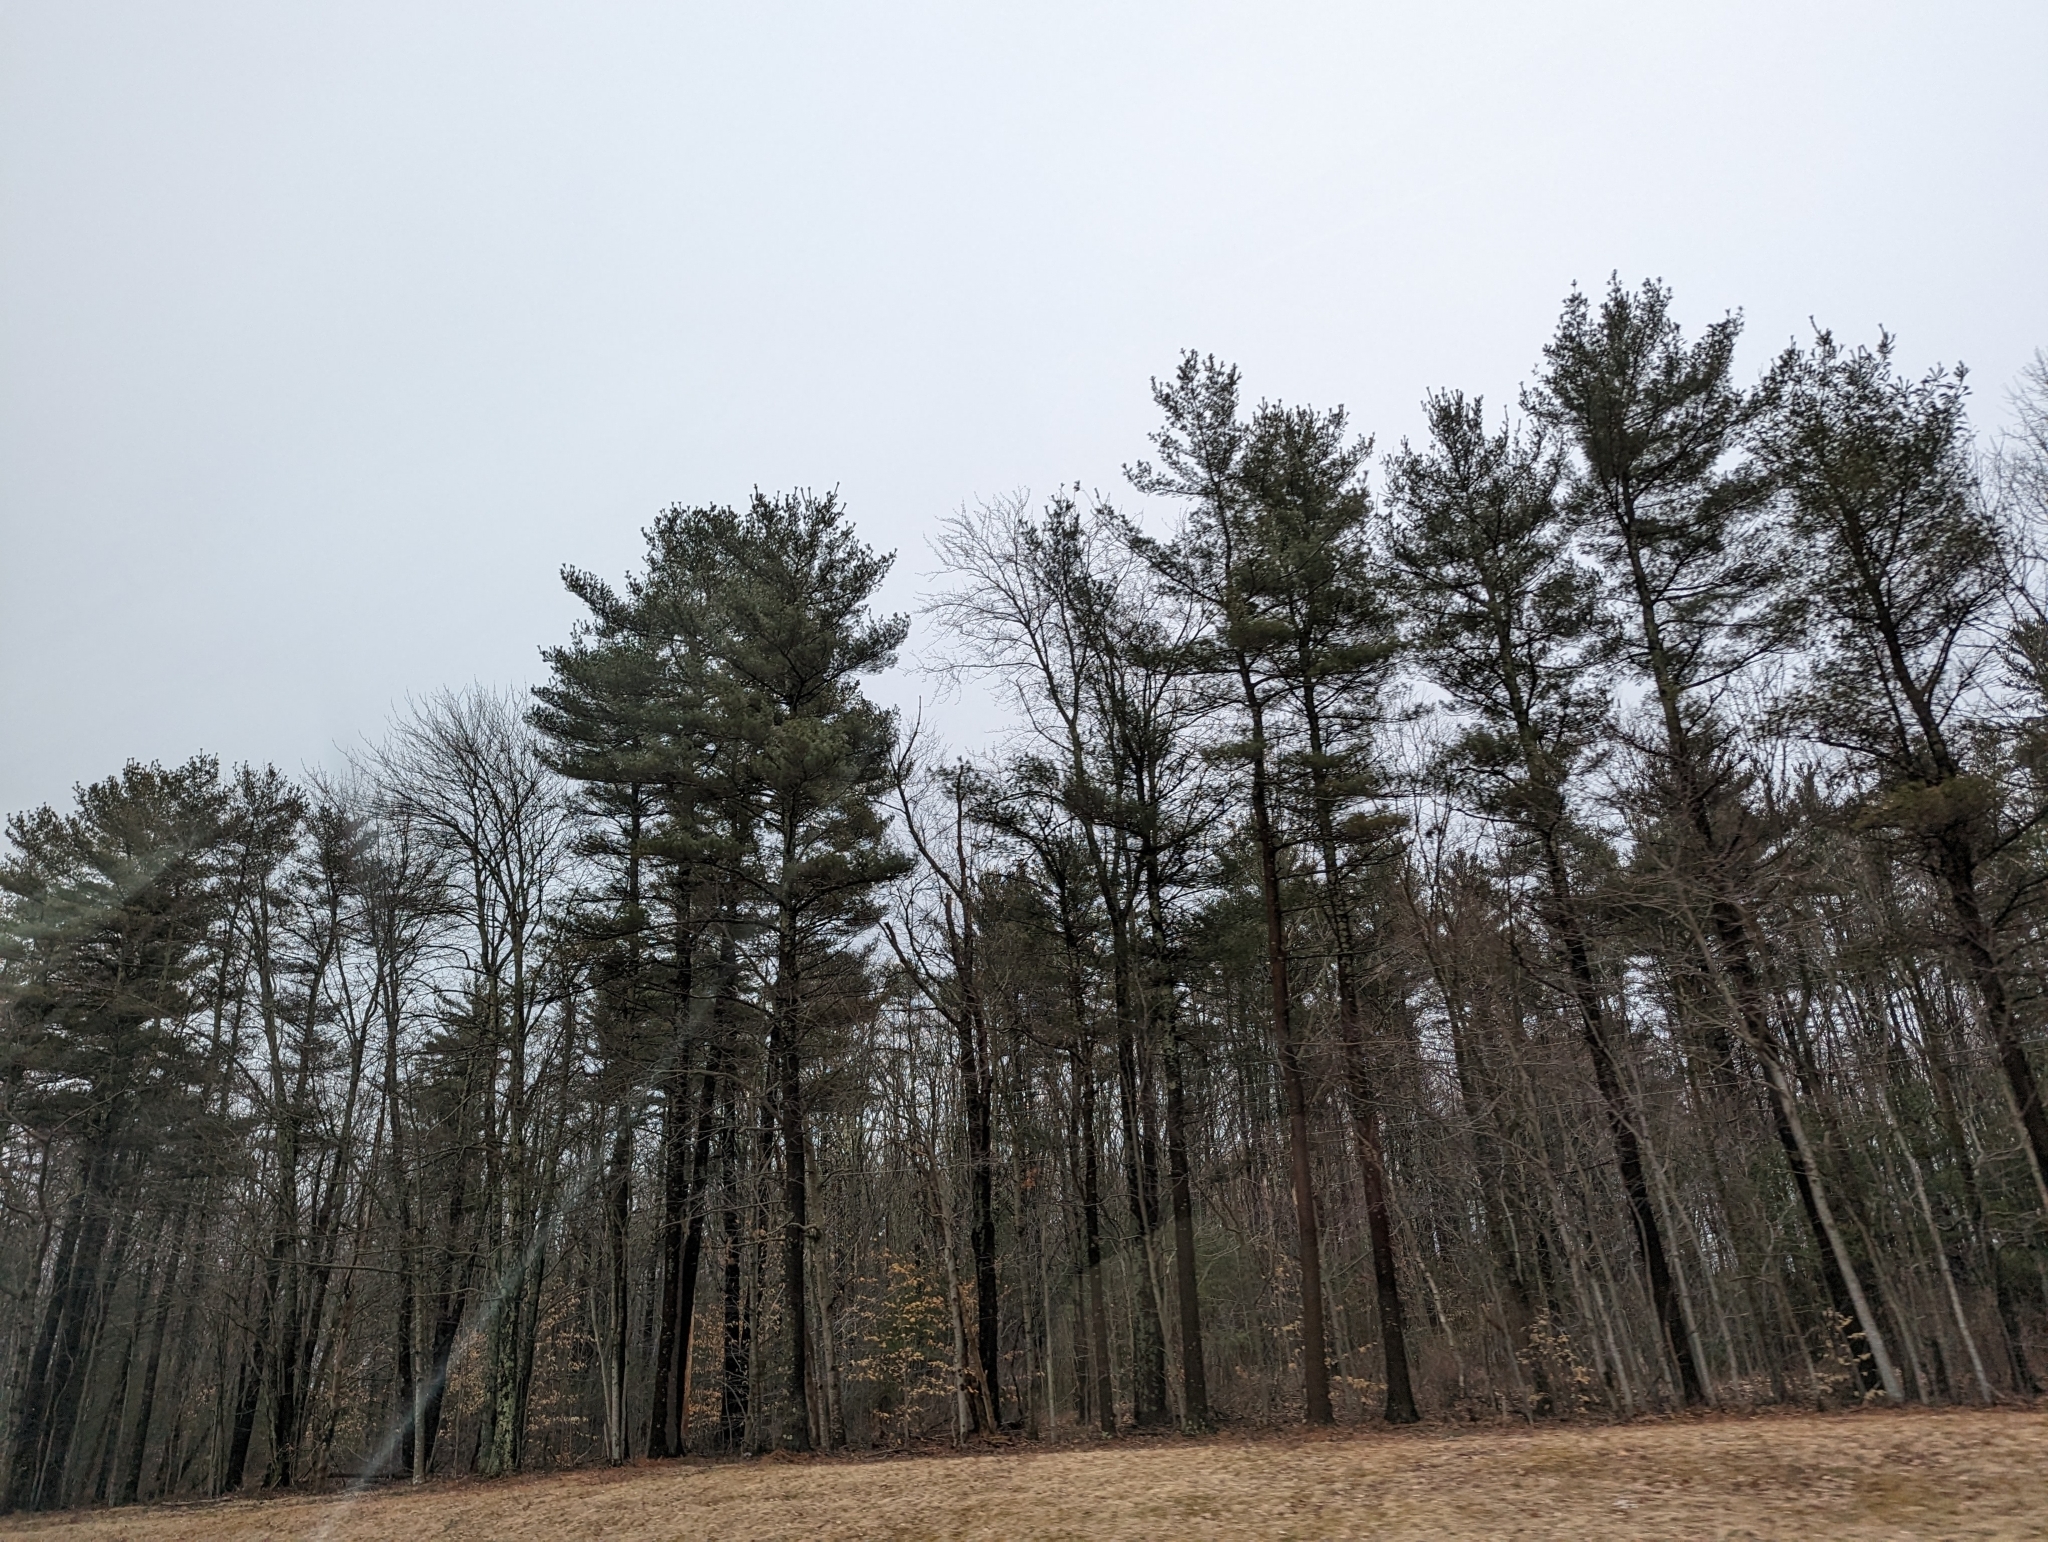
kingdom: Plantae
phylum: Tracheophyta
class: Pinopsida
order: Pinales
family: Pinaceae
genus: Pinus
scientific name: Pinus strobus
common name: Weymouth pine
